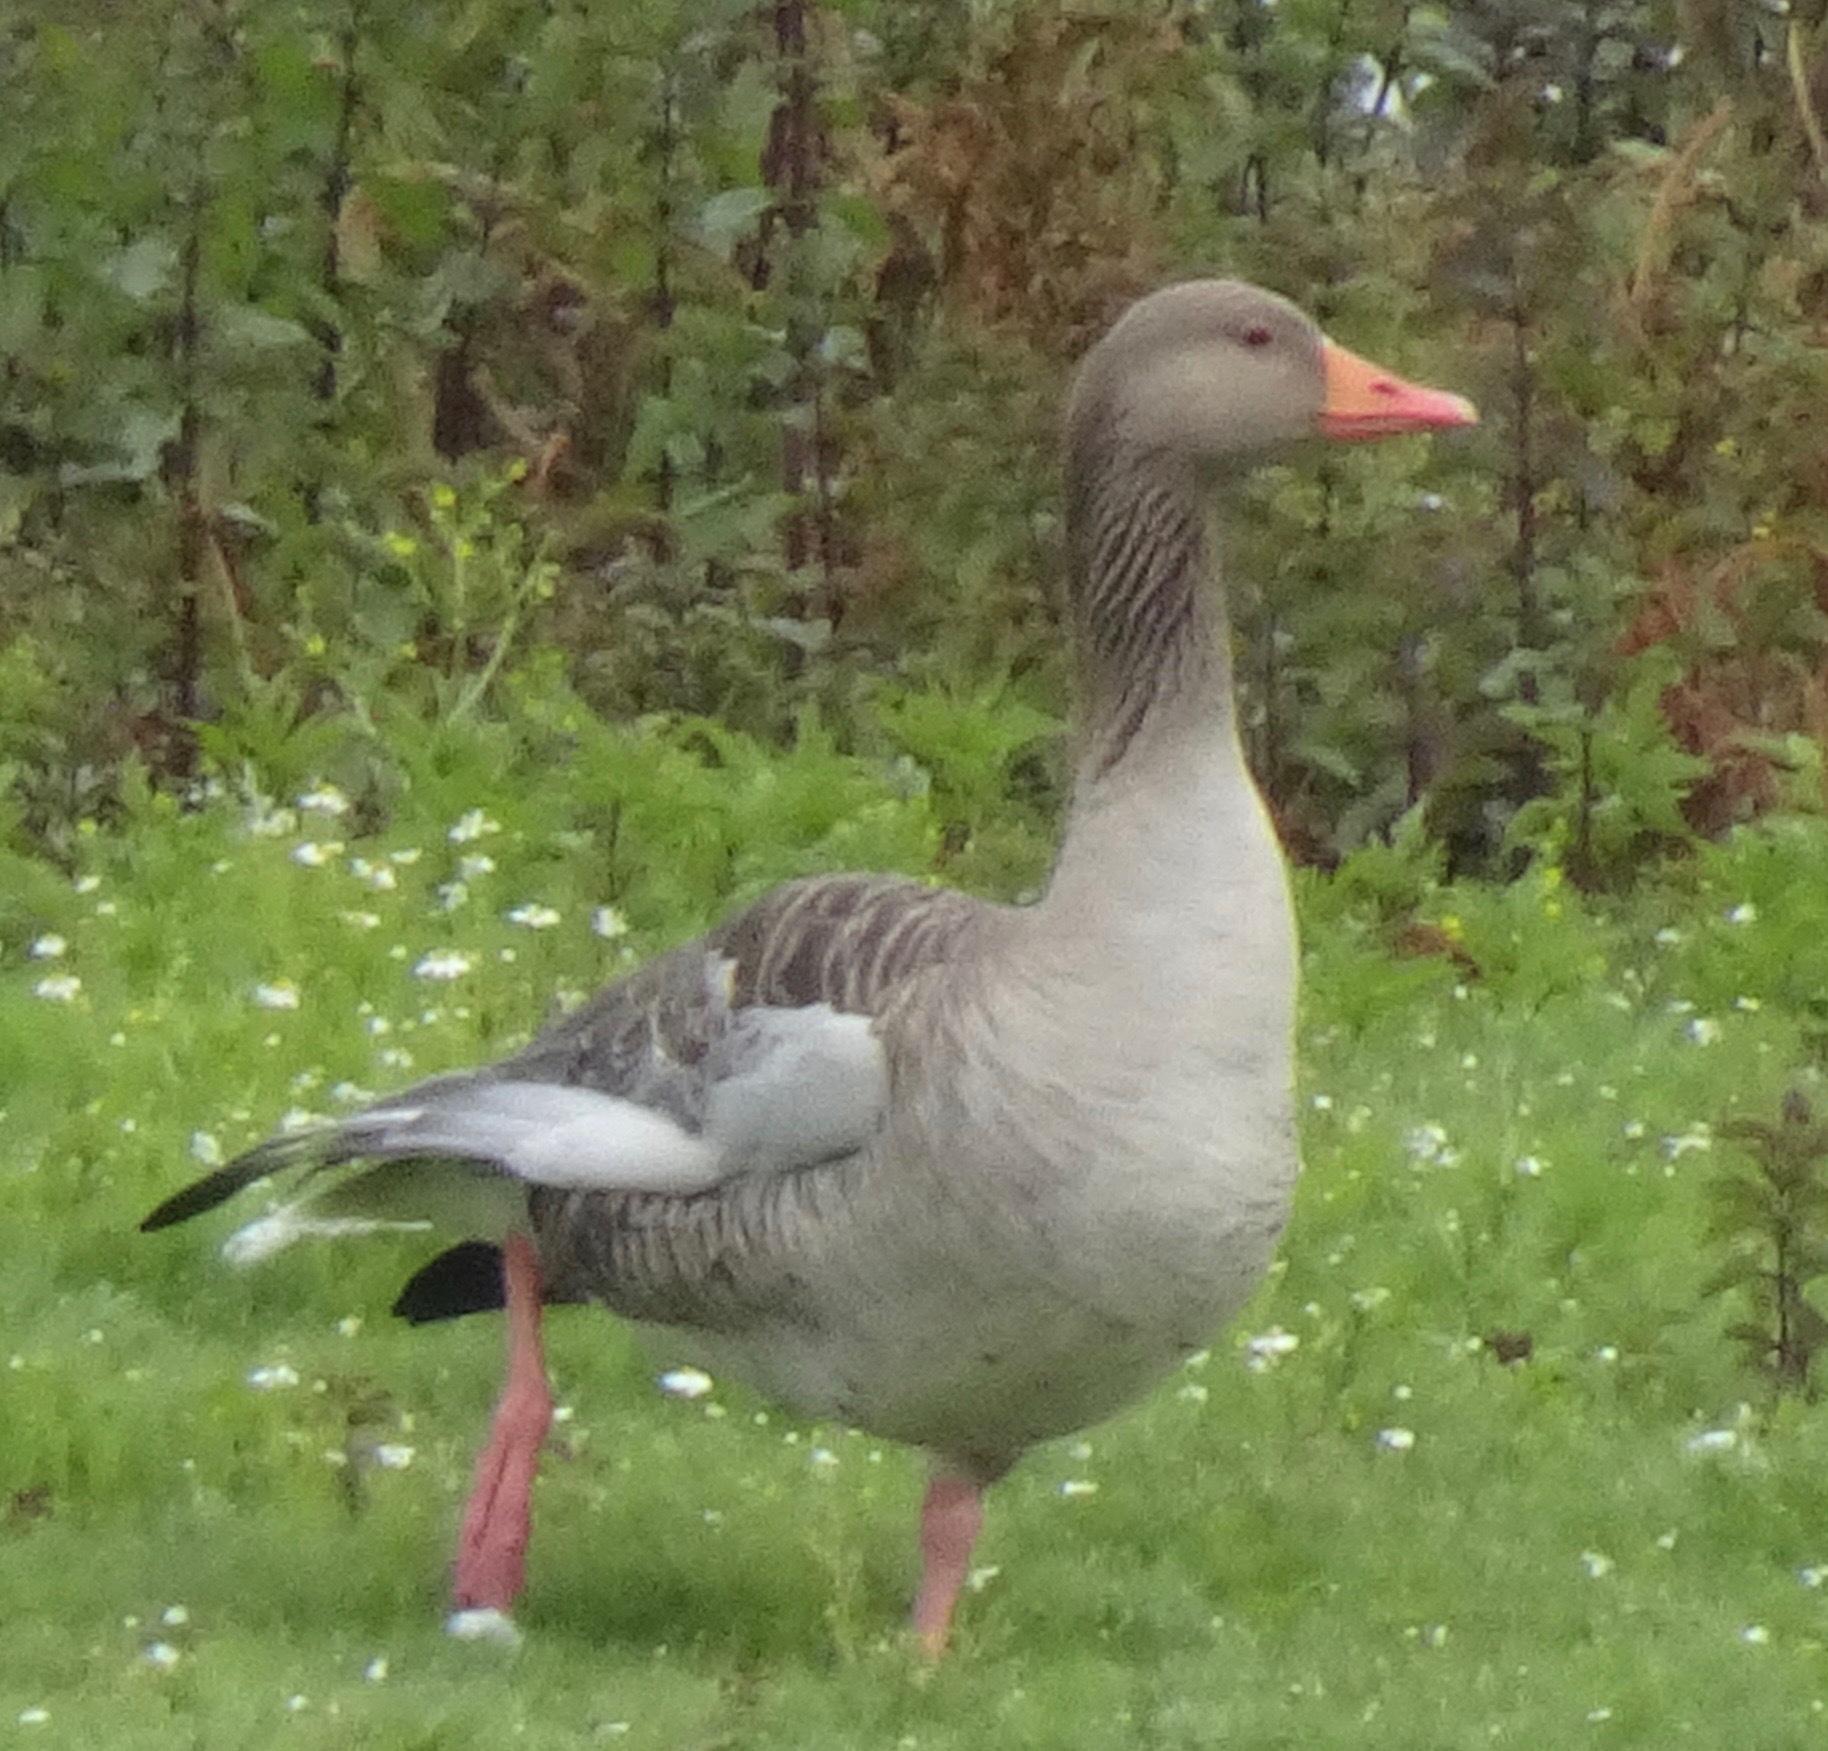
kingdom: Animalia
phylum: Chordata
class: Aves
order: Anseriformes
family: Anatidae
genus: Anser
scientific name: Anser anser
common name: Greylag goose
